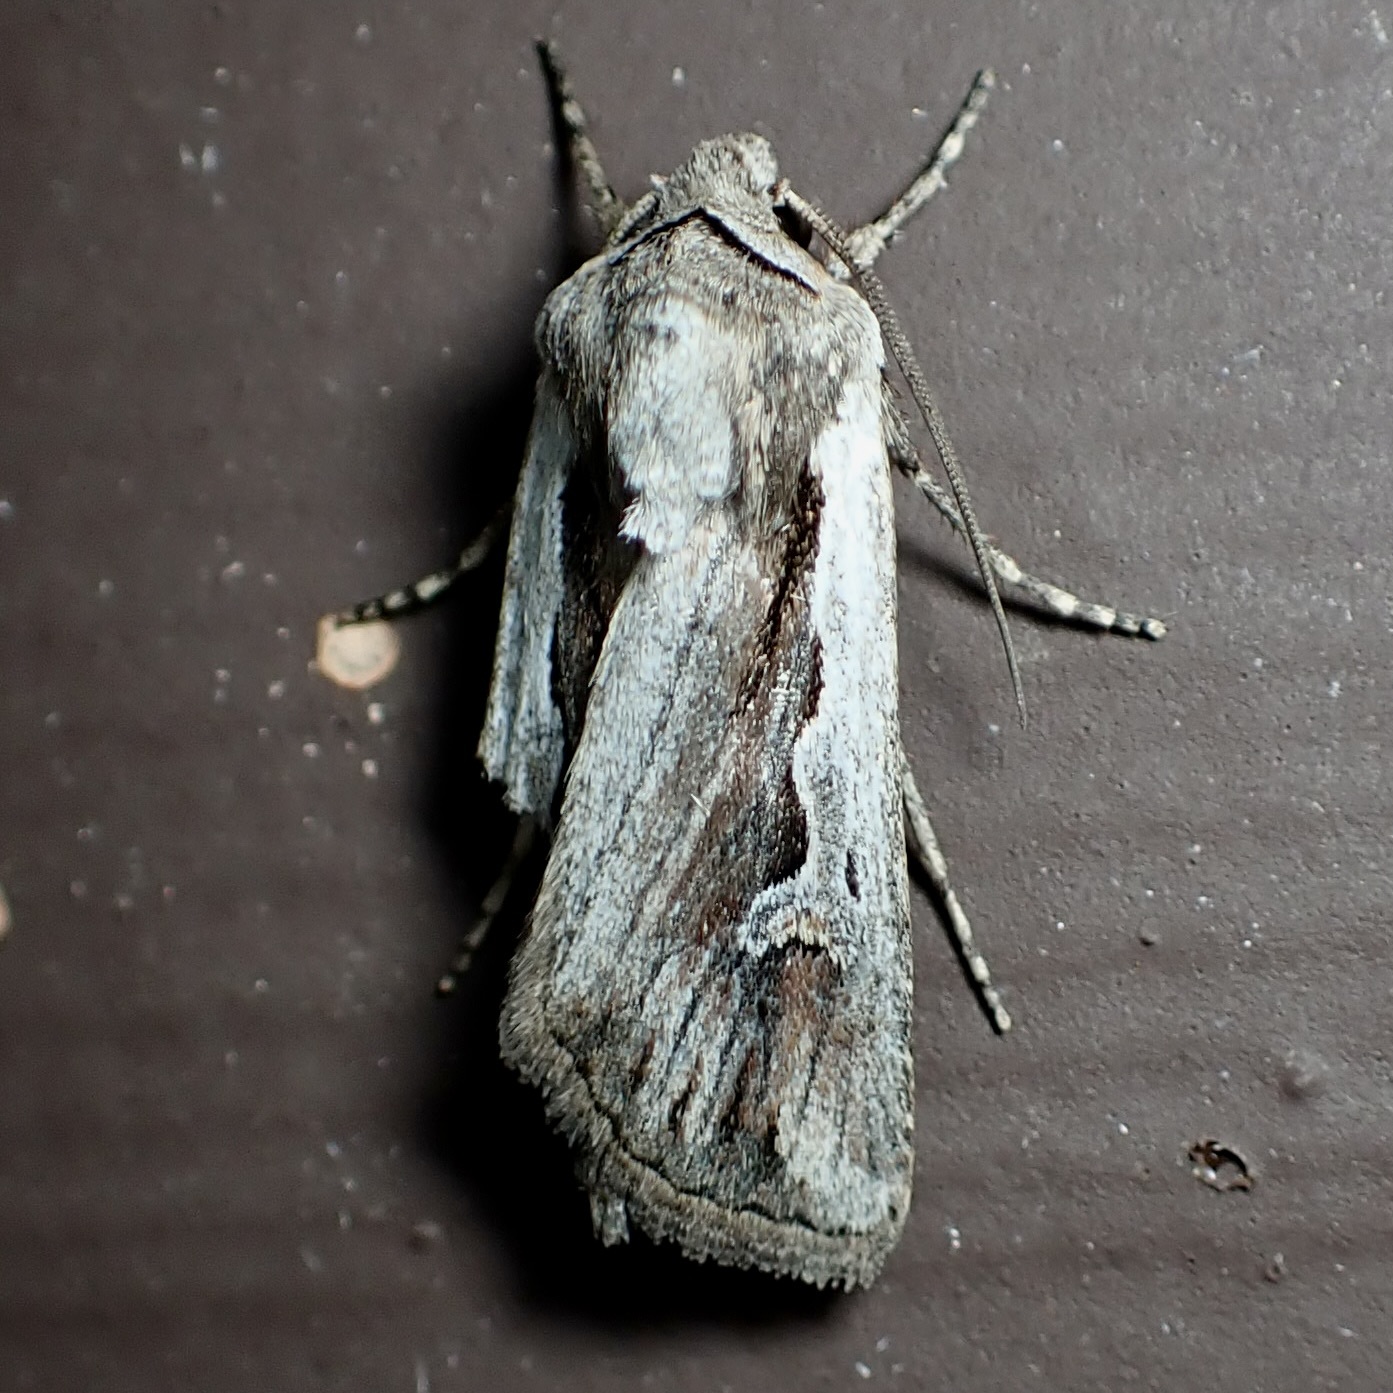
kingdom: Animalia
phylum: Arthropoda
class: Insecta
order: Lepidoptera
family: Noctuidae
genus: Euxoa
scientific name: Euxoa hollemani
